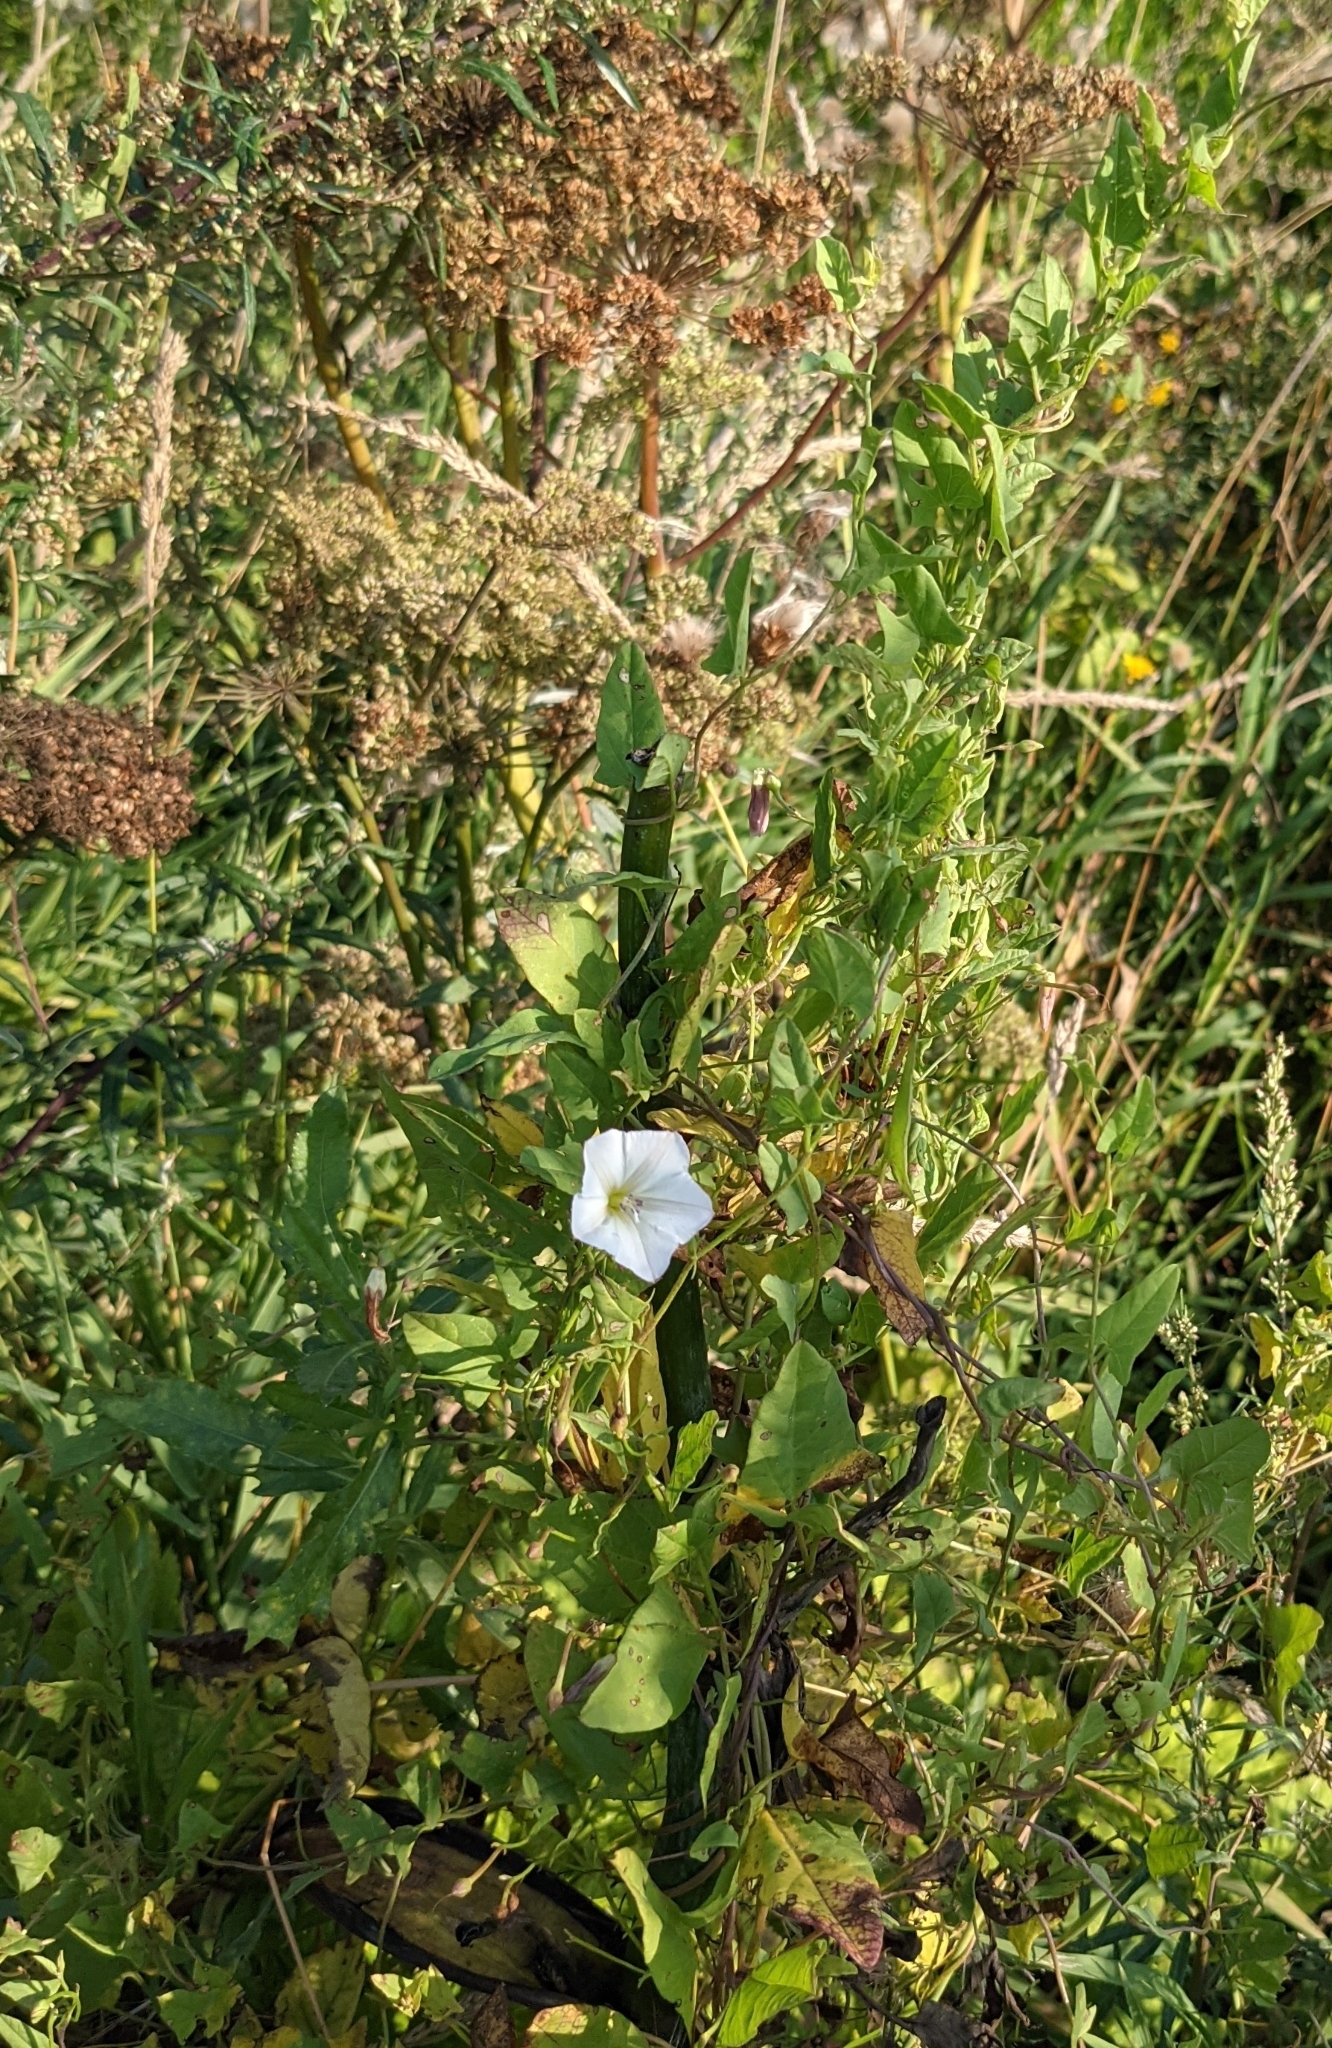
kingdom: Plantae
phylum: Tracheophyta
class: Magnoliopsida
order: Solanales
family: Convolvulaceae
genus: Convolvulus
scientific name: Convolvulus arvensis
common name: Field bindweed
